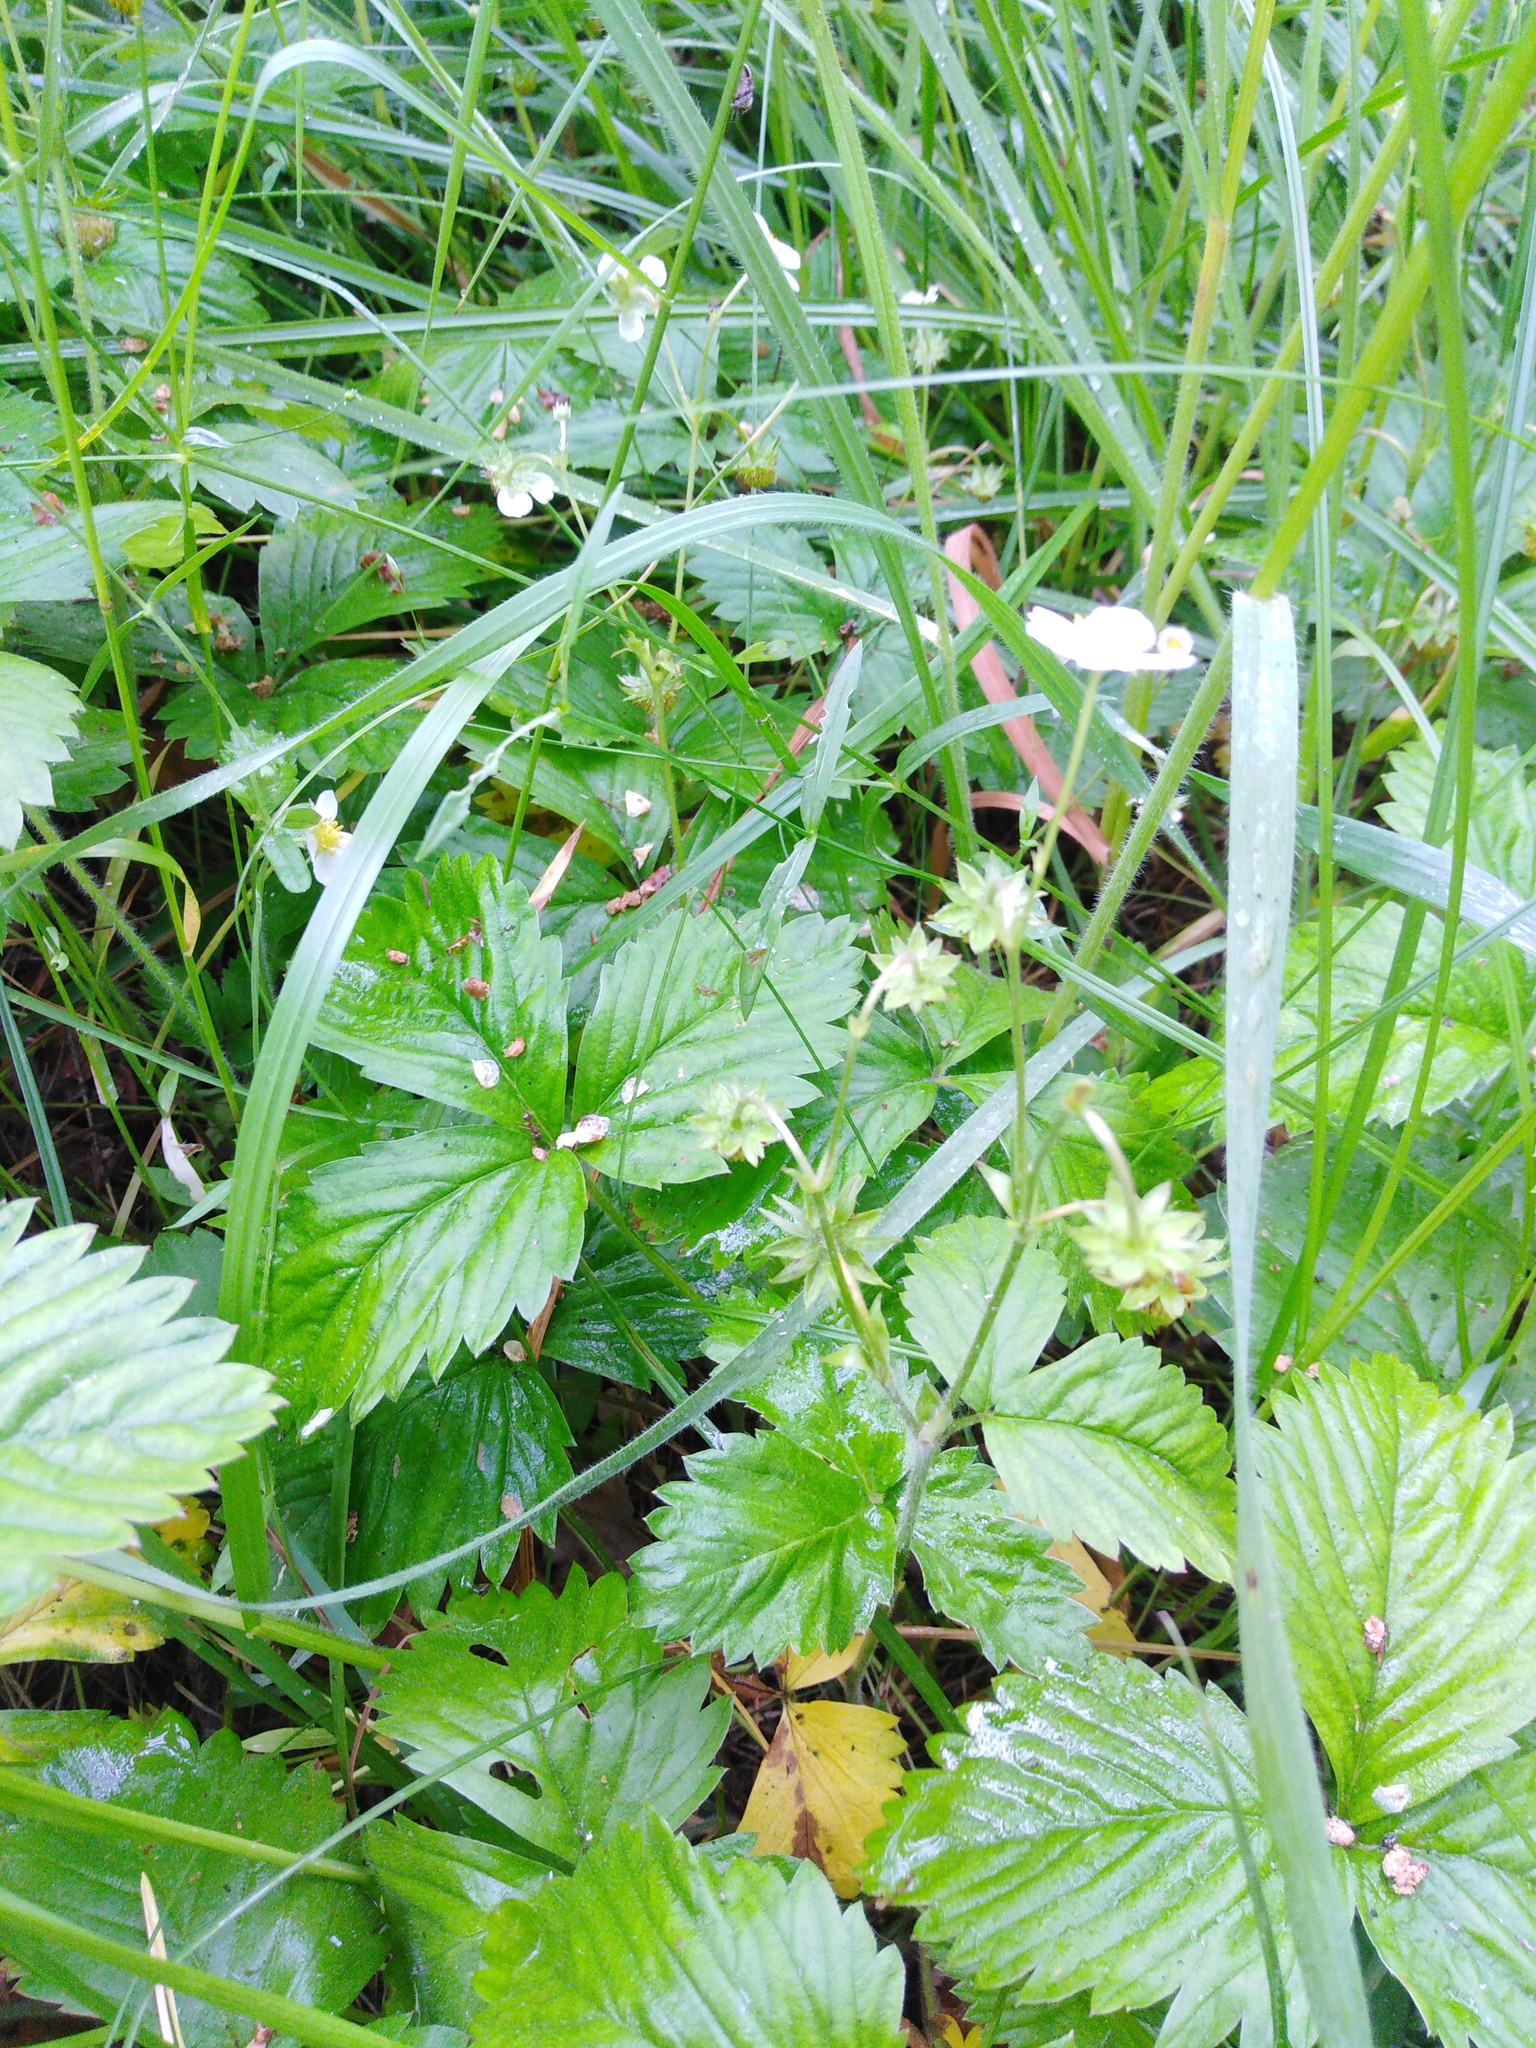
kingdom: Plantae
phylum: Tracheophyta
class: Magnoliopsida
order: Rosales
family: Rosaceae
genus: Fragaria
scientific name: Fragaria vesca
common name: Wild strawberry
